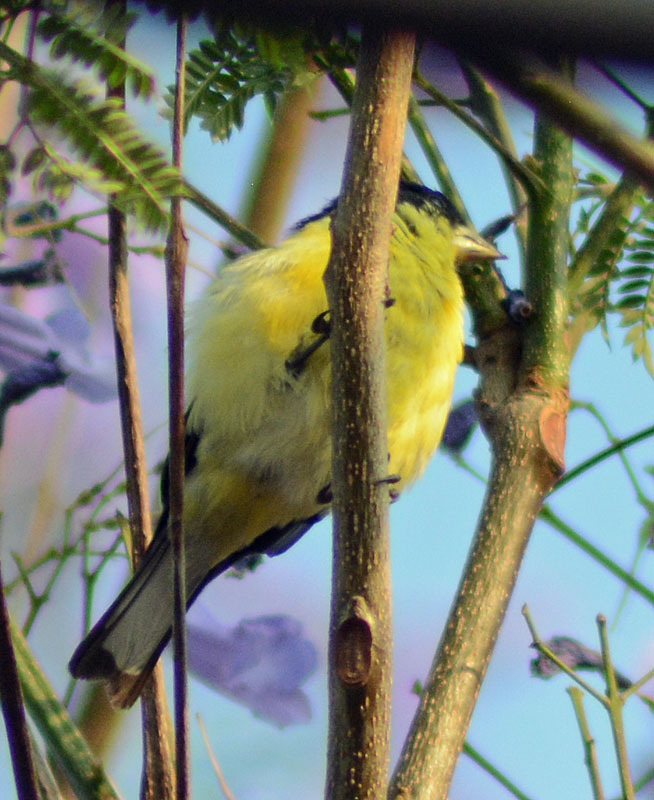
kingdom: Animalia
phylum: Chordata
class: Aves
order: Passeriformes
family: Fringillidae
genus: Spinus
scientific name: Spinus psaltria
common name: Lesser goldfinch
